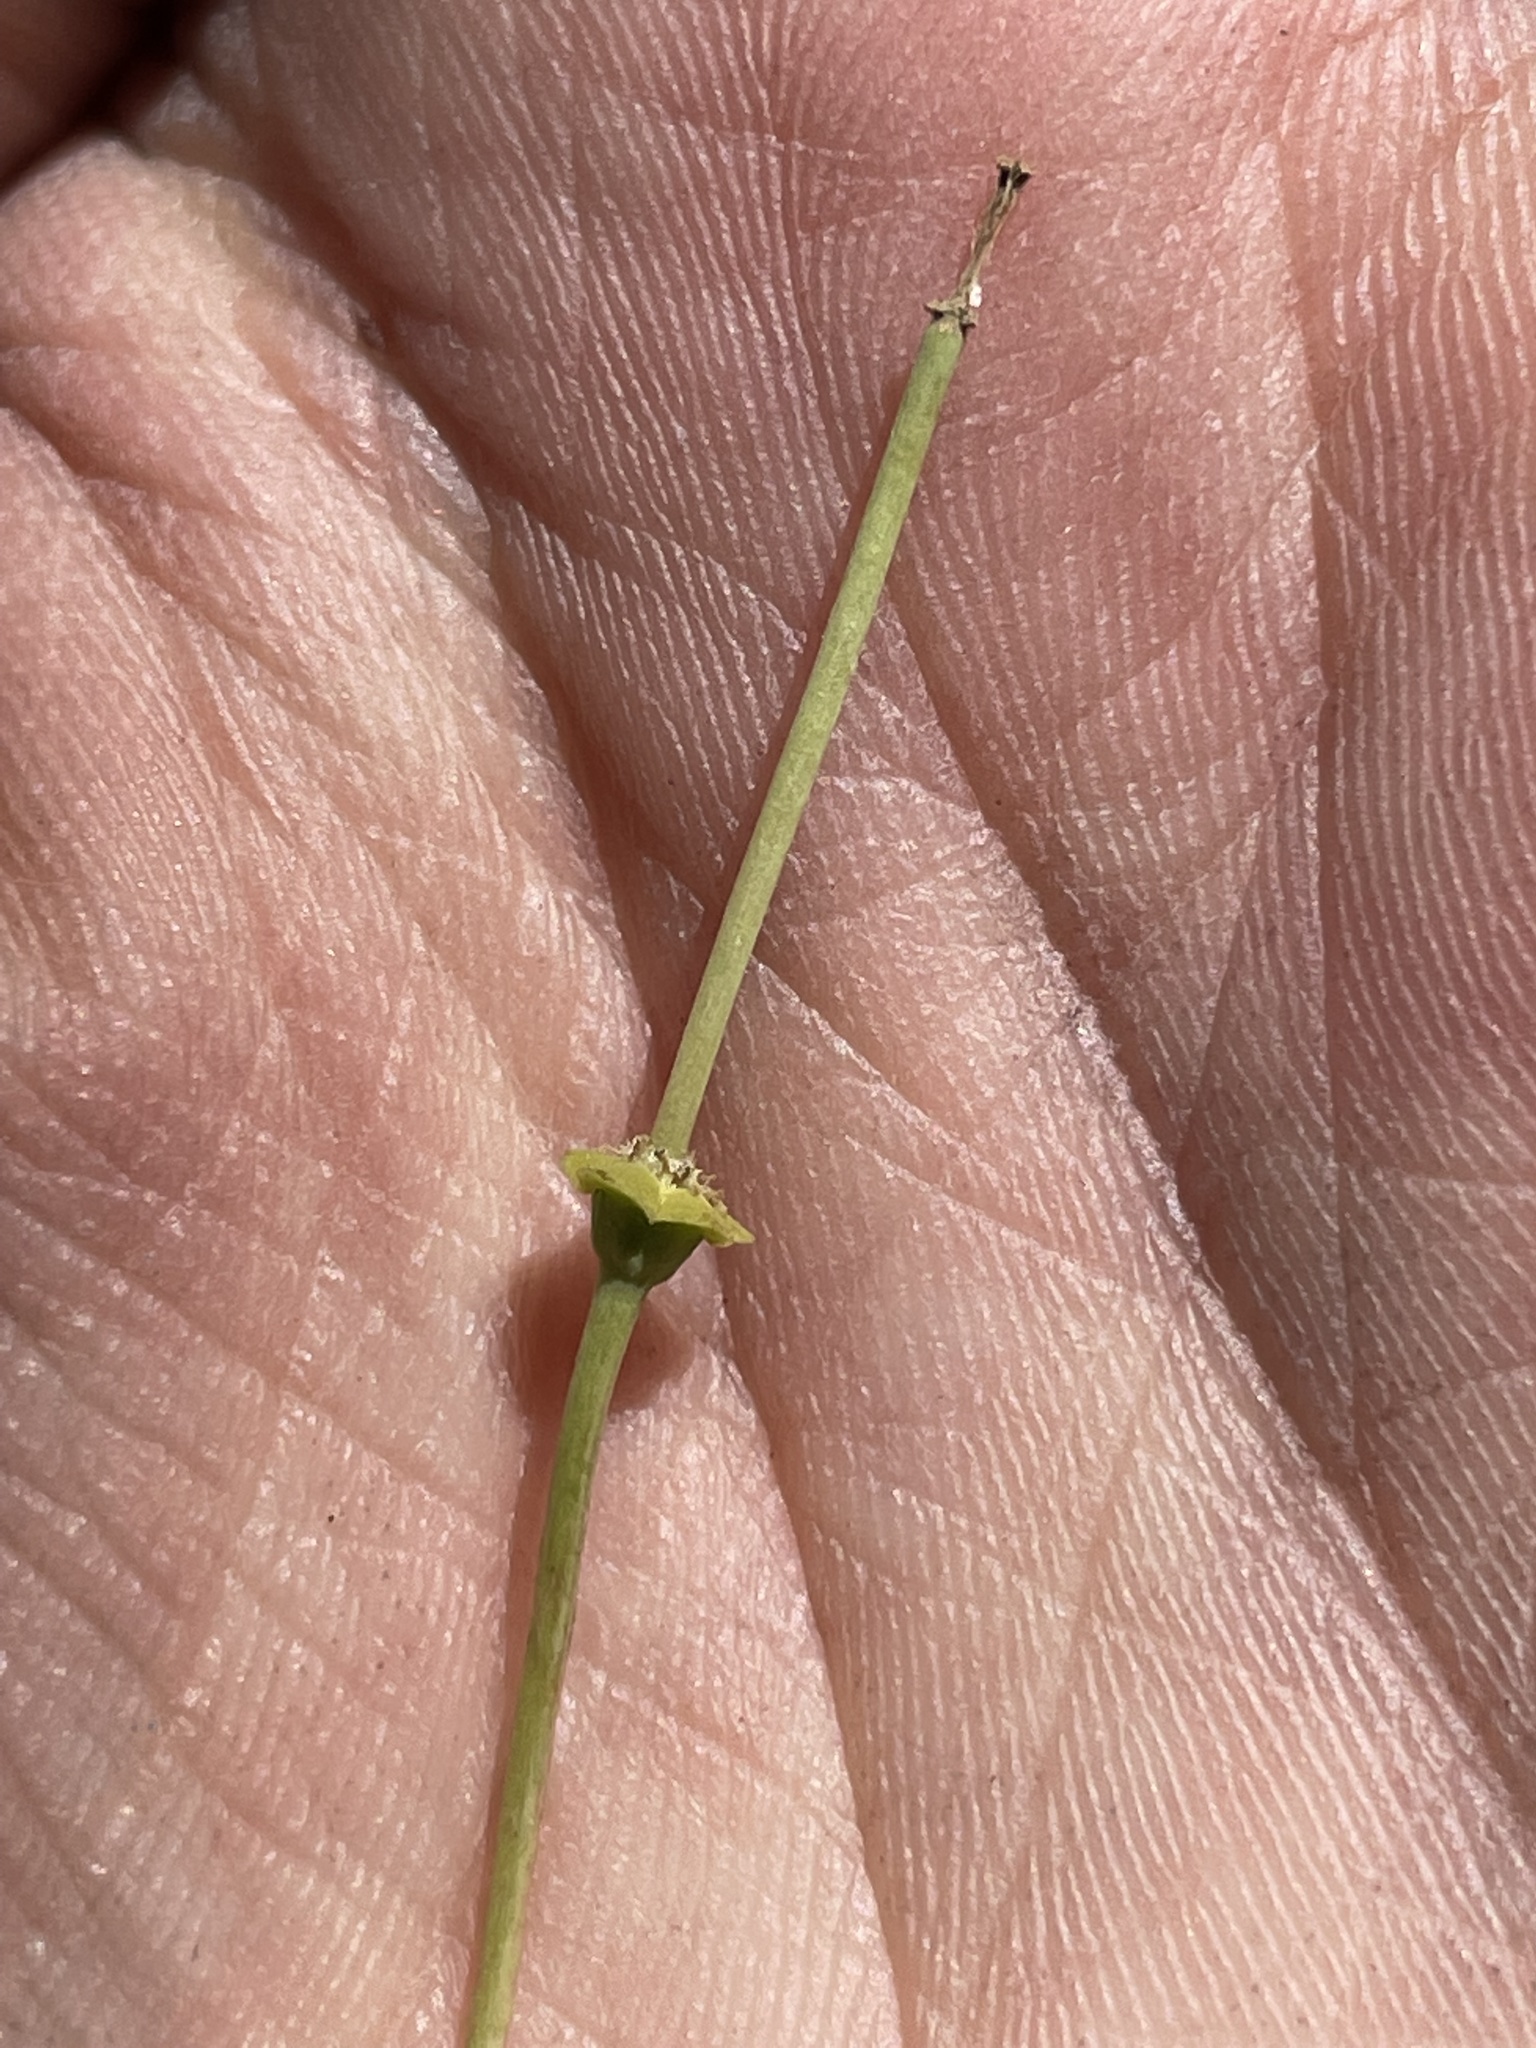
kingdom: Plantae
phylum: Tracheophyta
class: Magnoliopsida
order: Malpighiales
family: Euphorbiaceae
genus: Euphorbia
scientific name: Euphorbia ipecacuanhae
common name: Carolina ipecac
